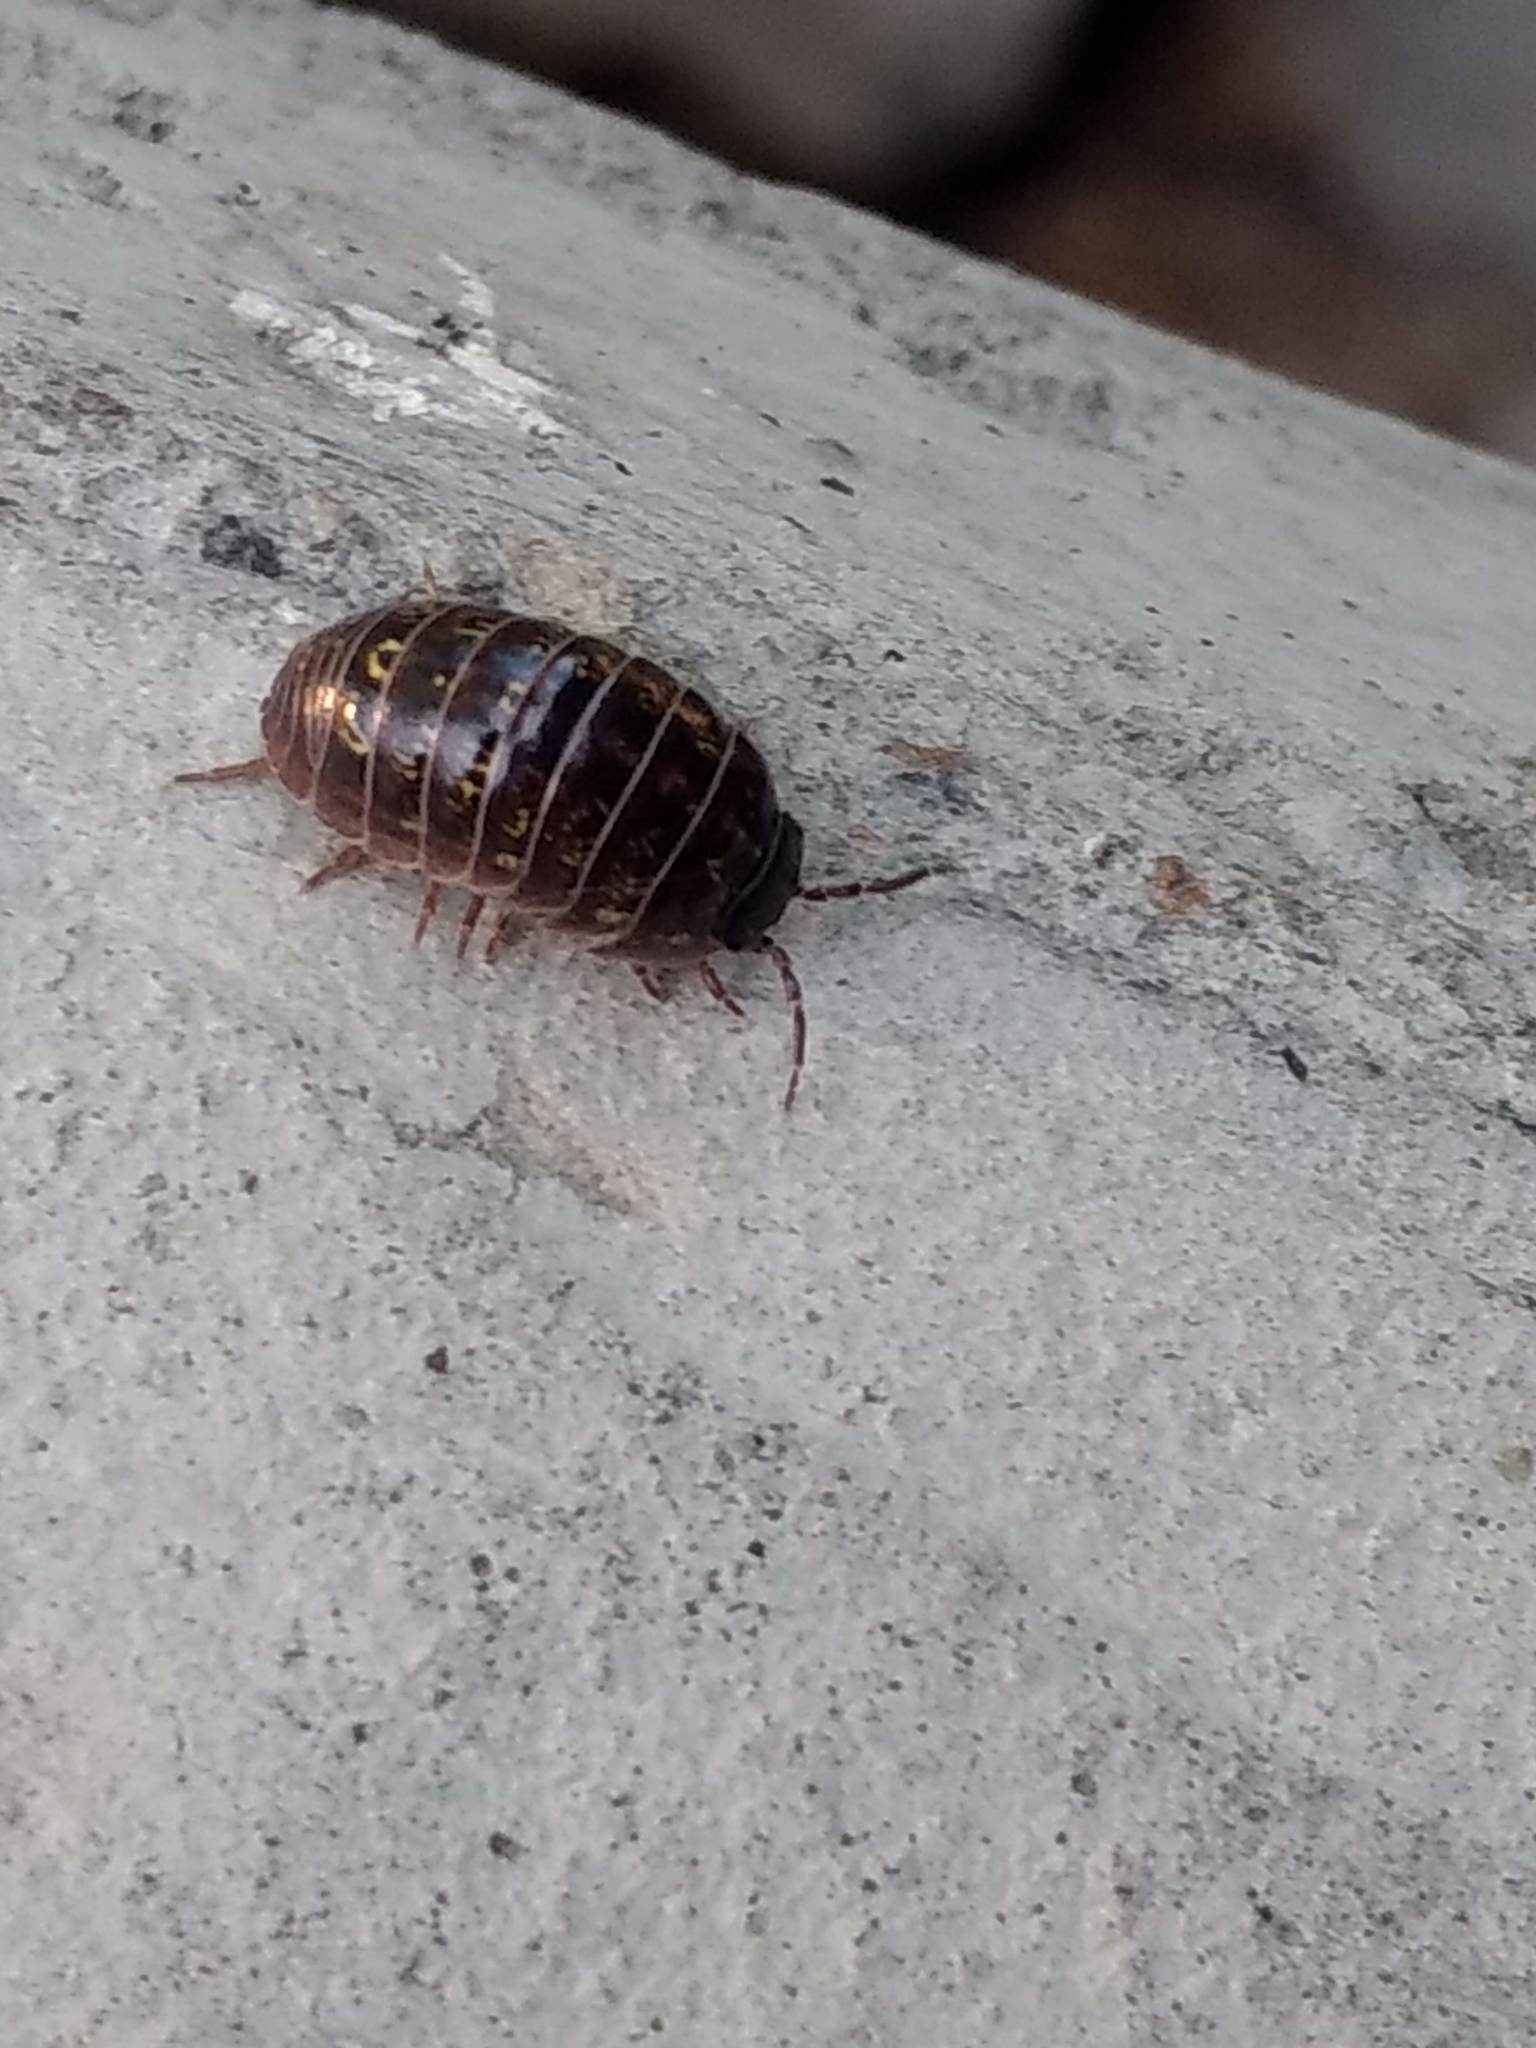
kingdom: Animalia
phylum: Arthropoda
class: Malacostraca
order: Isopoda
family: Armadillidiidae
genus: Armadillidium
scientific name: Armadillidium vulgare
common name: Common pill woodlouse
